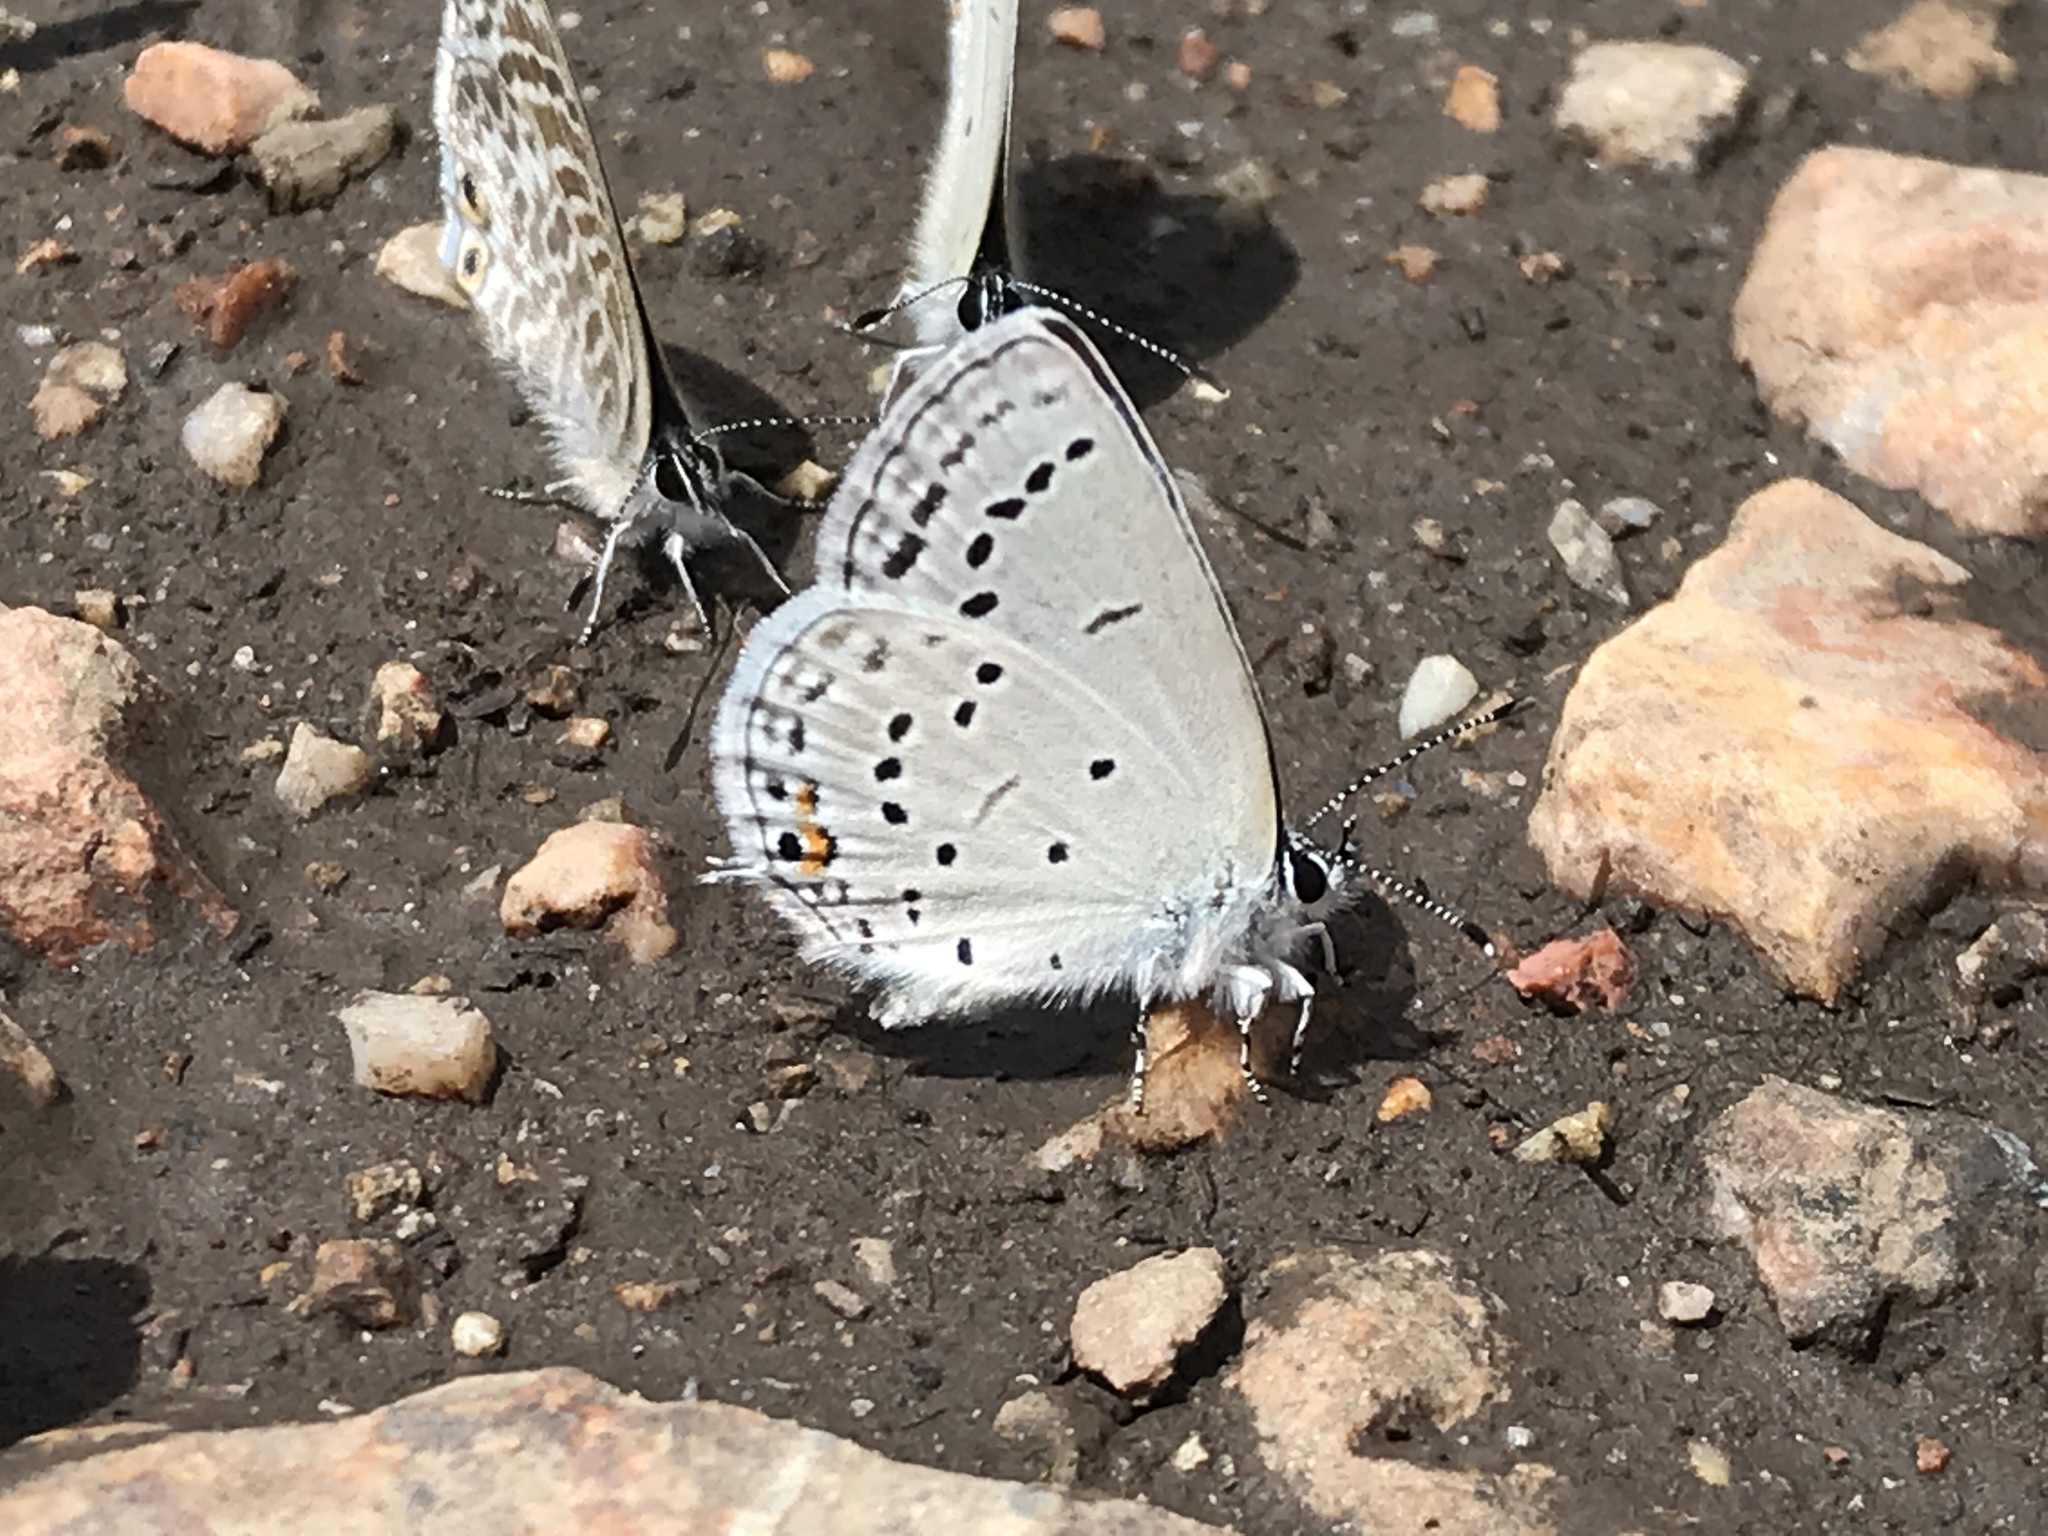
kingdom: Animalia
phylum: Arthropoda
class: Insecta
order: Lepidoptera
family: Lycaenidae
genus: Elkalyce
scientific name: Elkalyce amyntula
